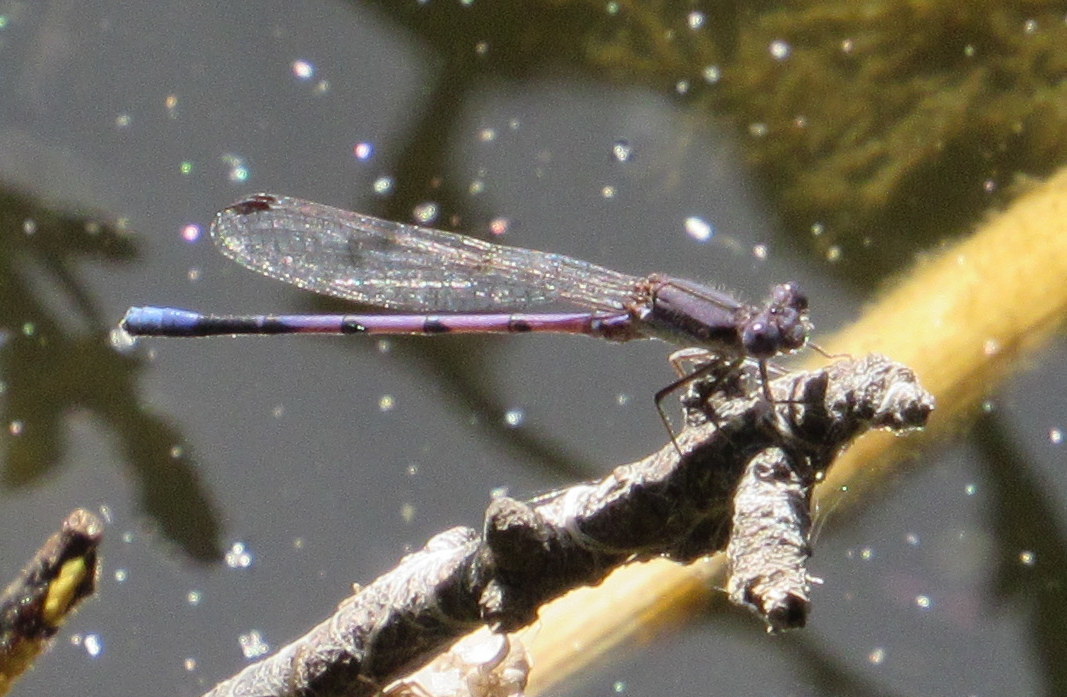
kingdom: Animalia
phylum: Arthropoda
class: Insecta
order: Odonata
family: Coenagrionidae
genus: Argia
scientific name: Argia fumipennis
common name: Variable dancer
